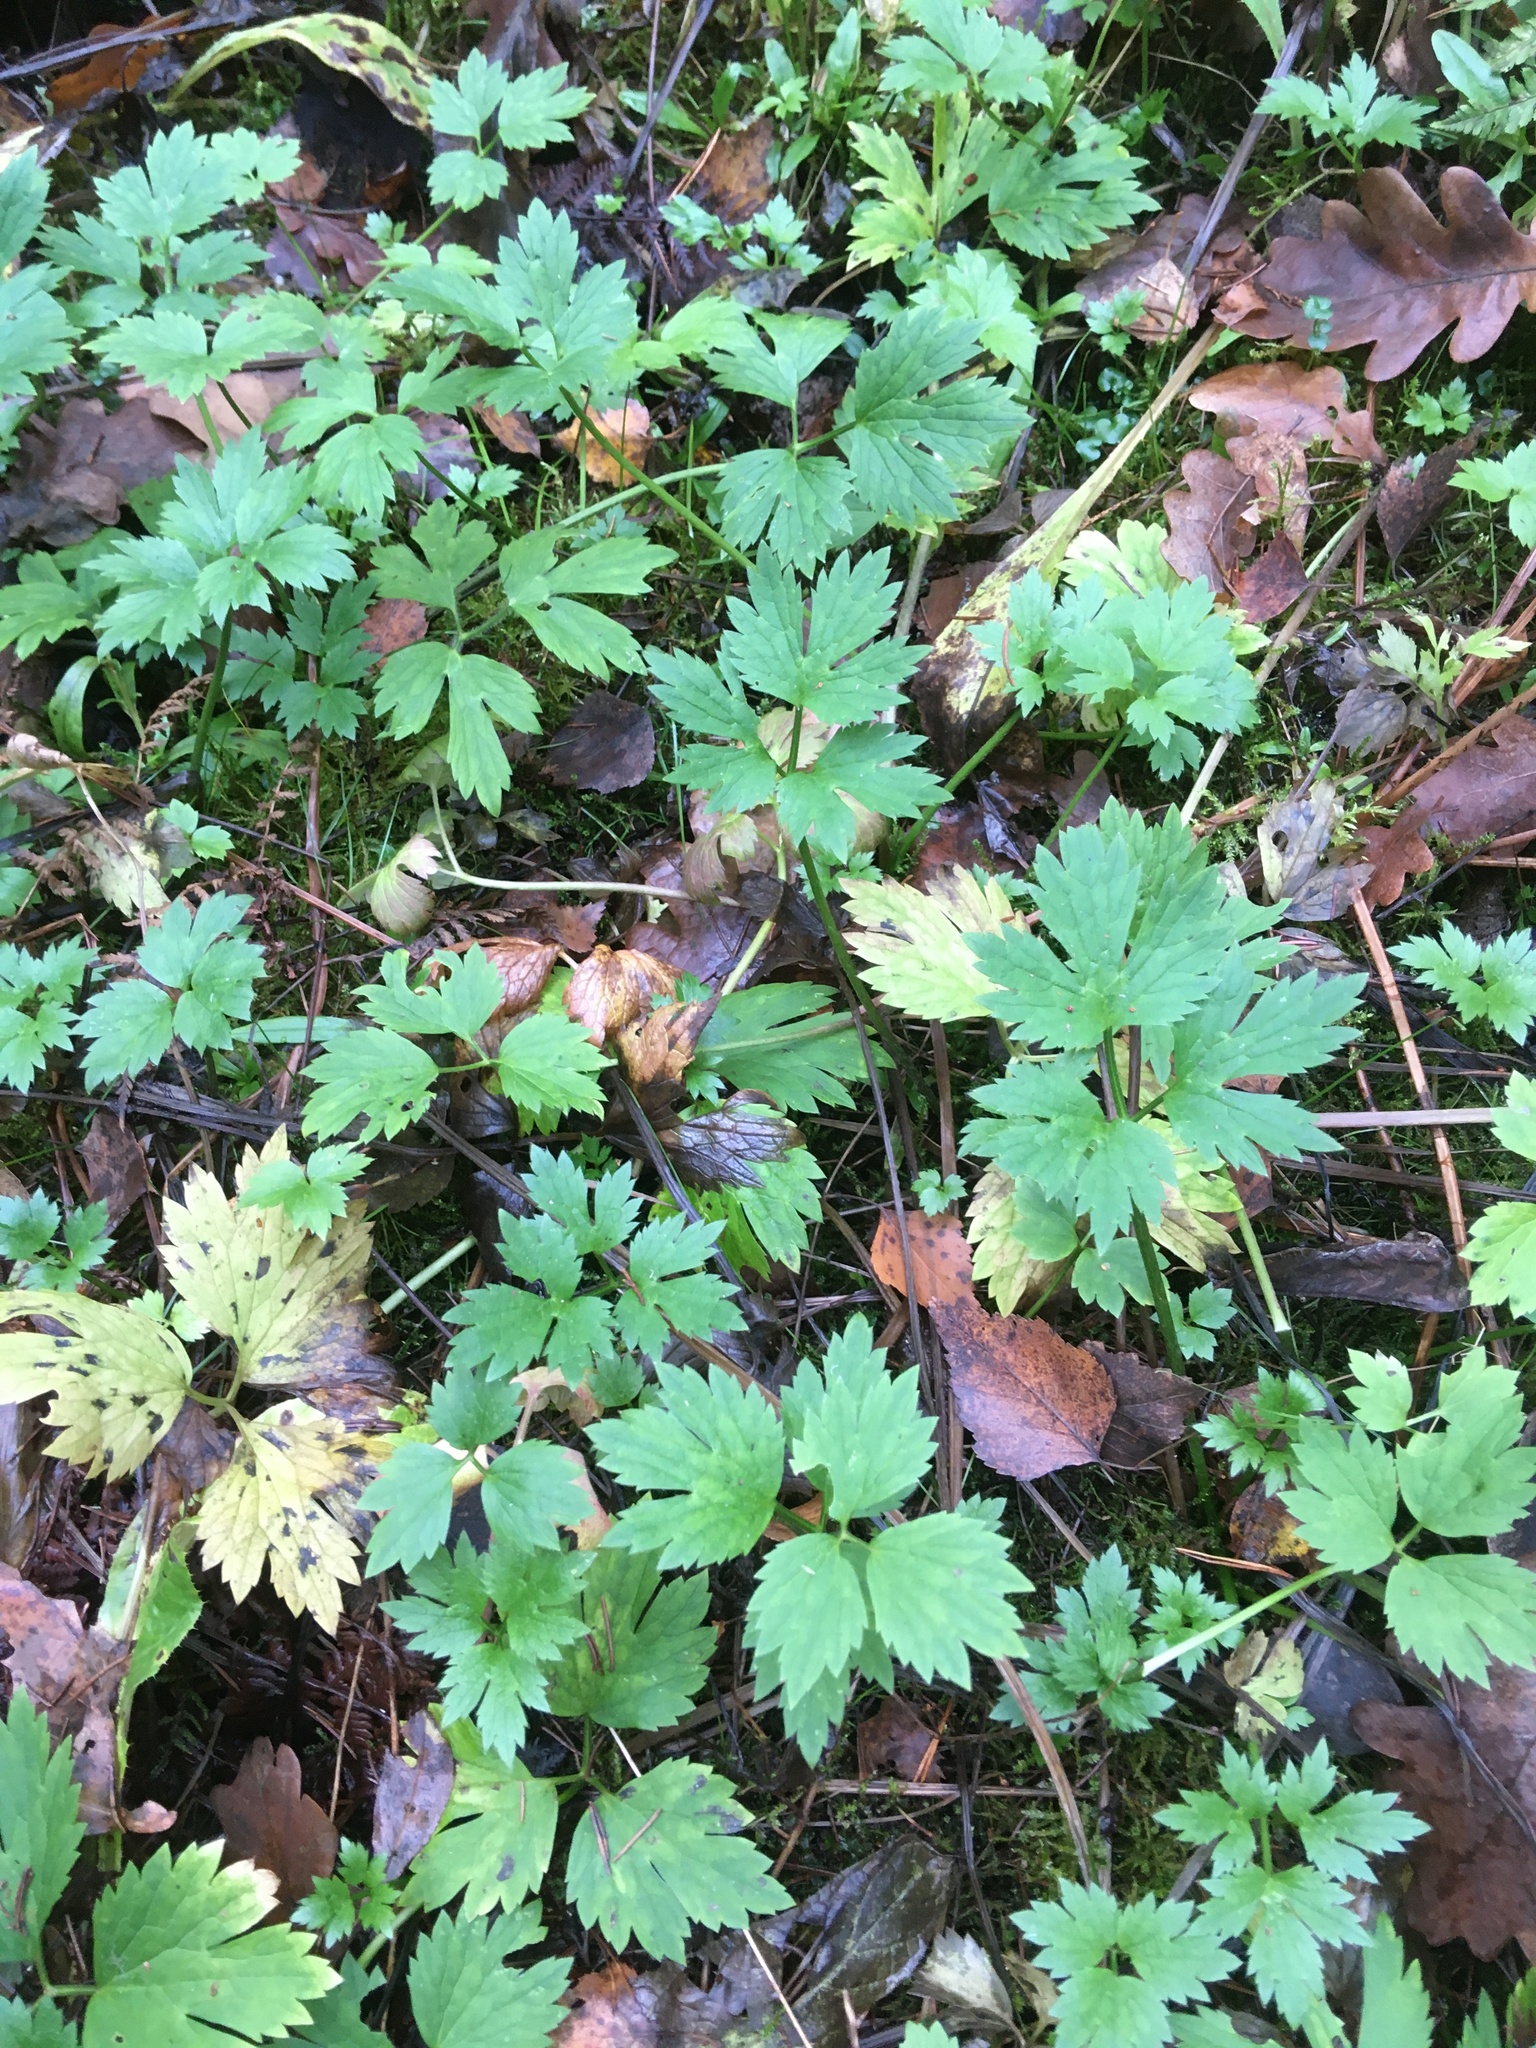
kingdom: Plantae
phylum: Tracheophyta
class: Magnoliopsida
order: Ranunculales
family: Ranunculaceae
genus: Ranunculus
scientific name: Ranunculus repens
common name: Creeping buttercup
